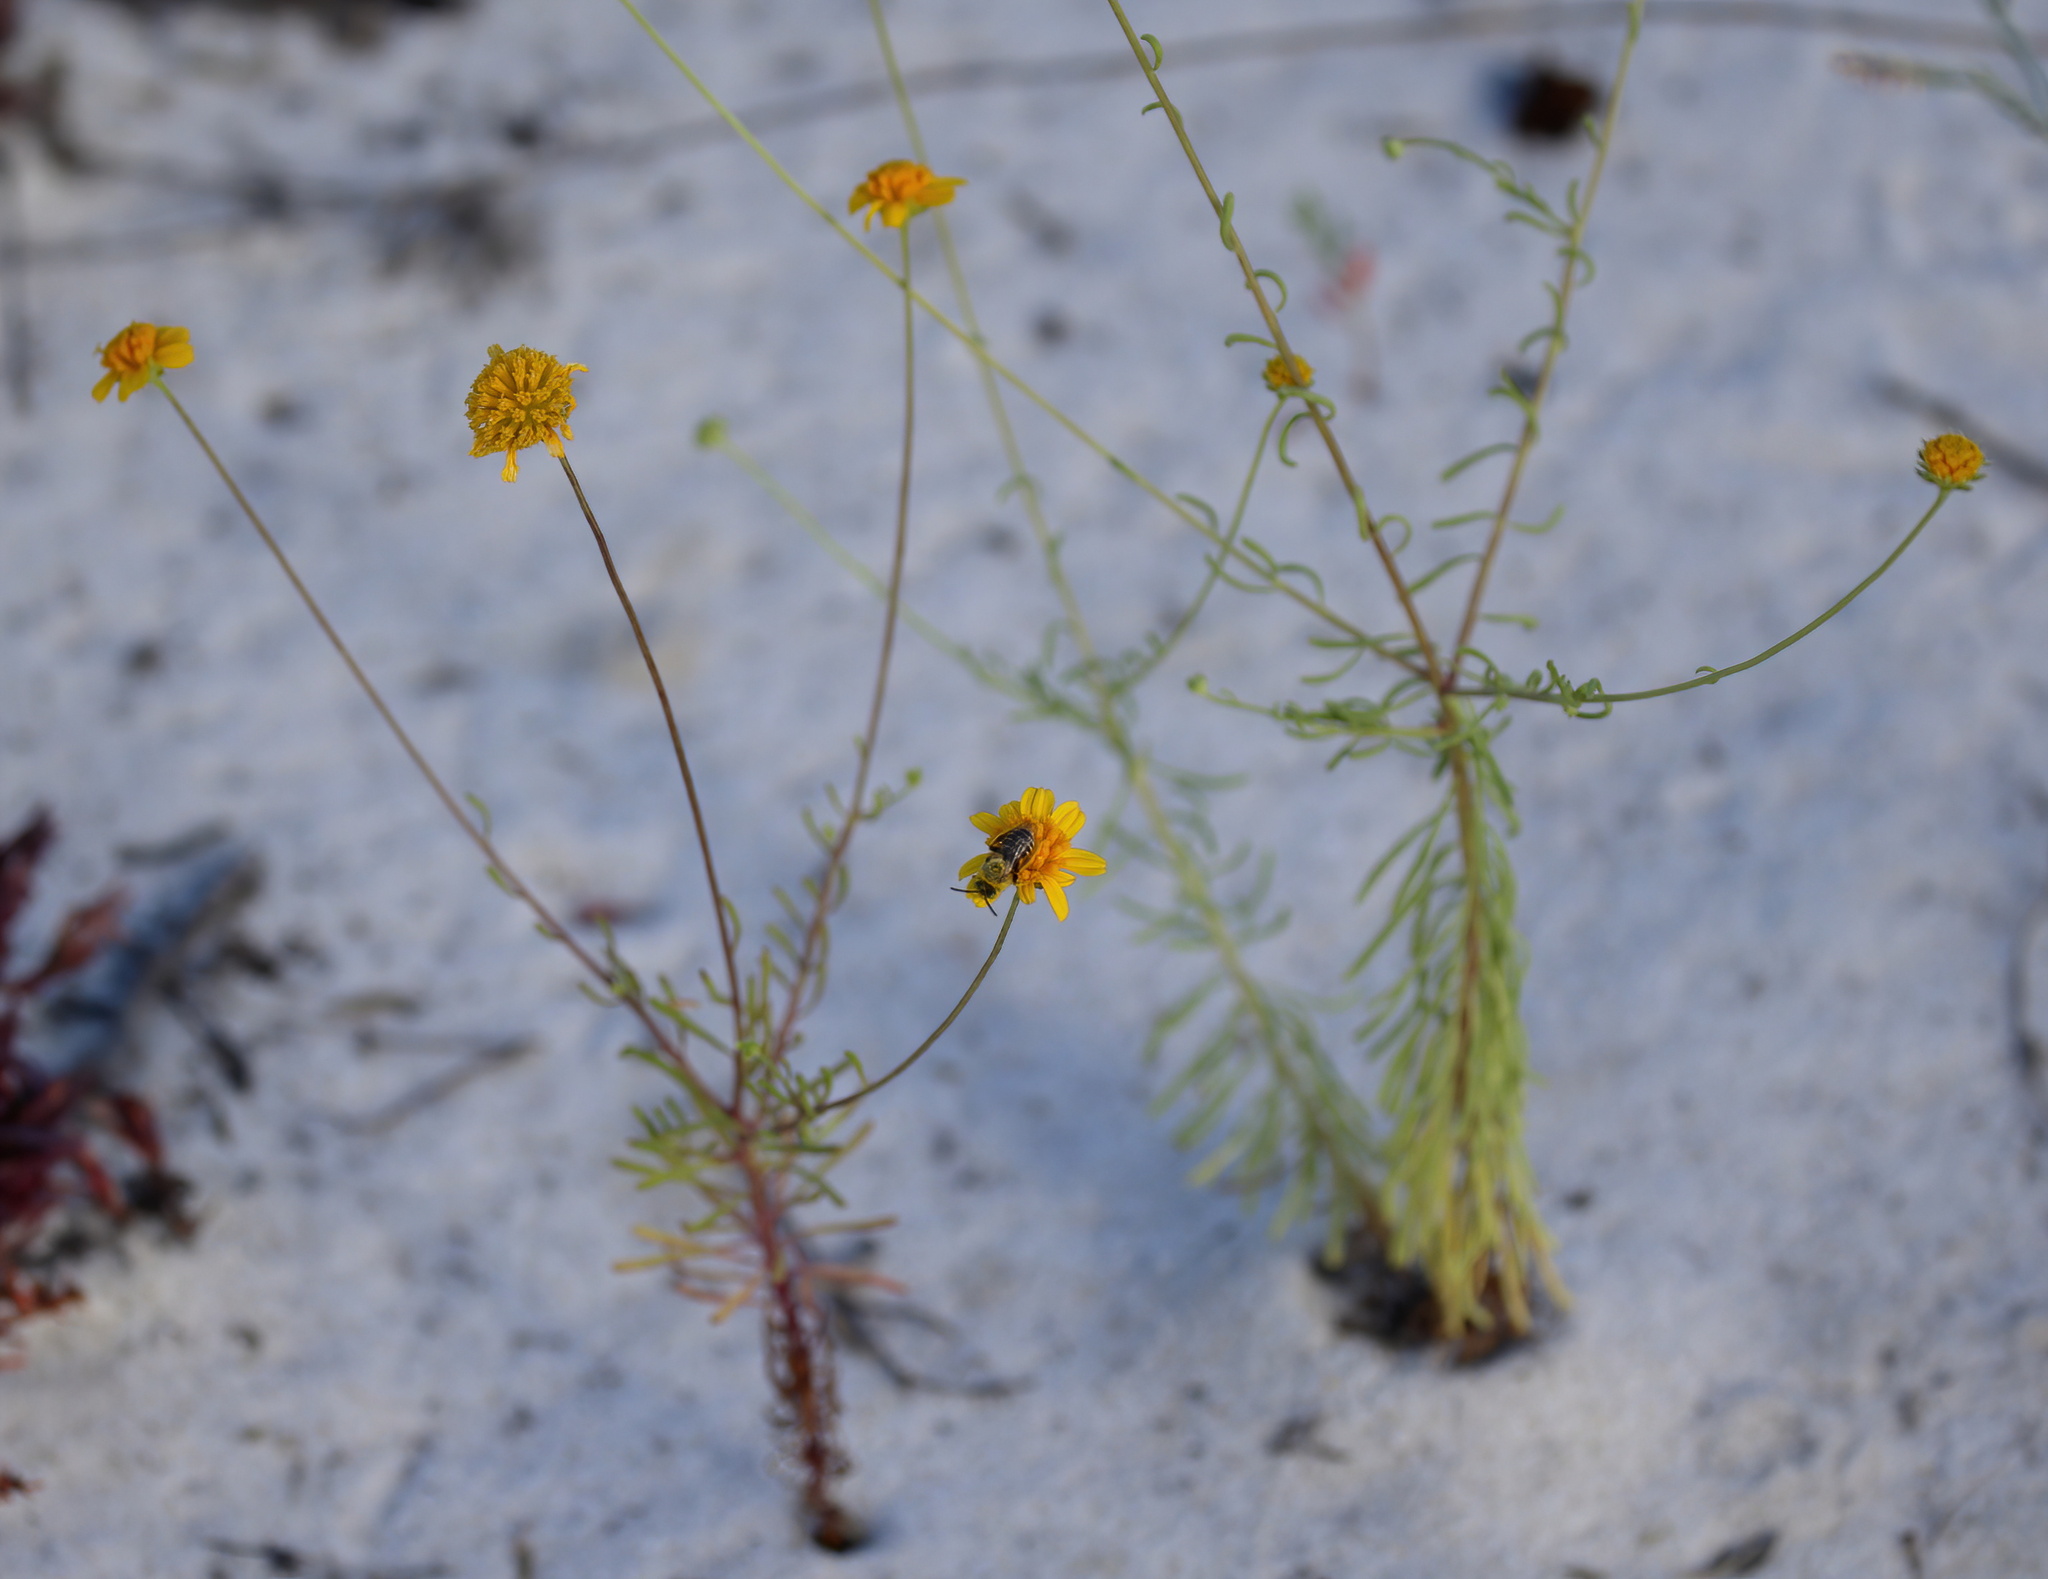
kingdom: Animalia
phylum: Arthropoda
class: Insecta
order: Hymenoptera
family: Melittidae
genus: Hesperapis
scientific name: Hesperapis oraria
